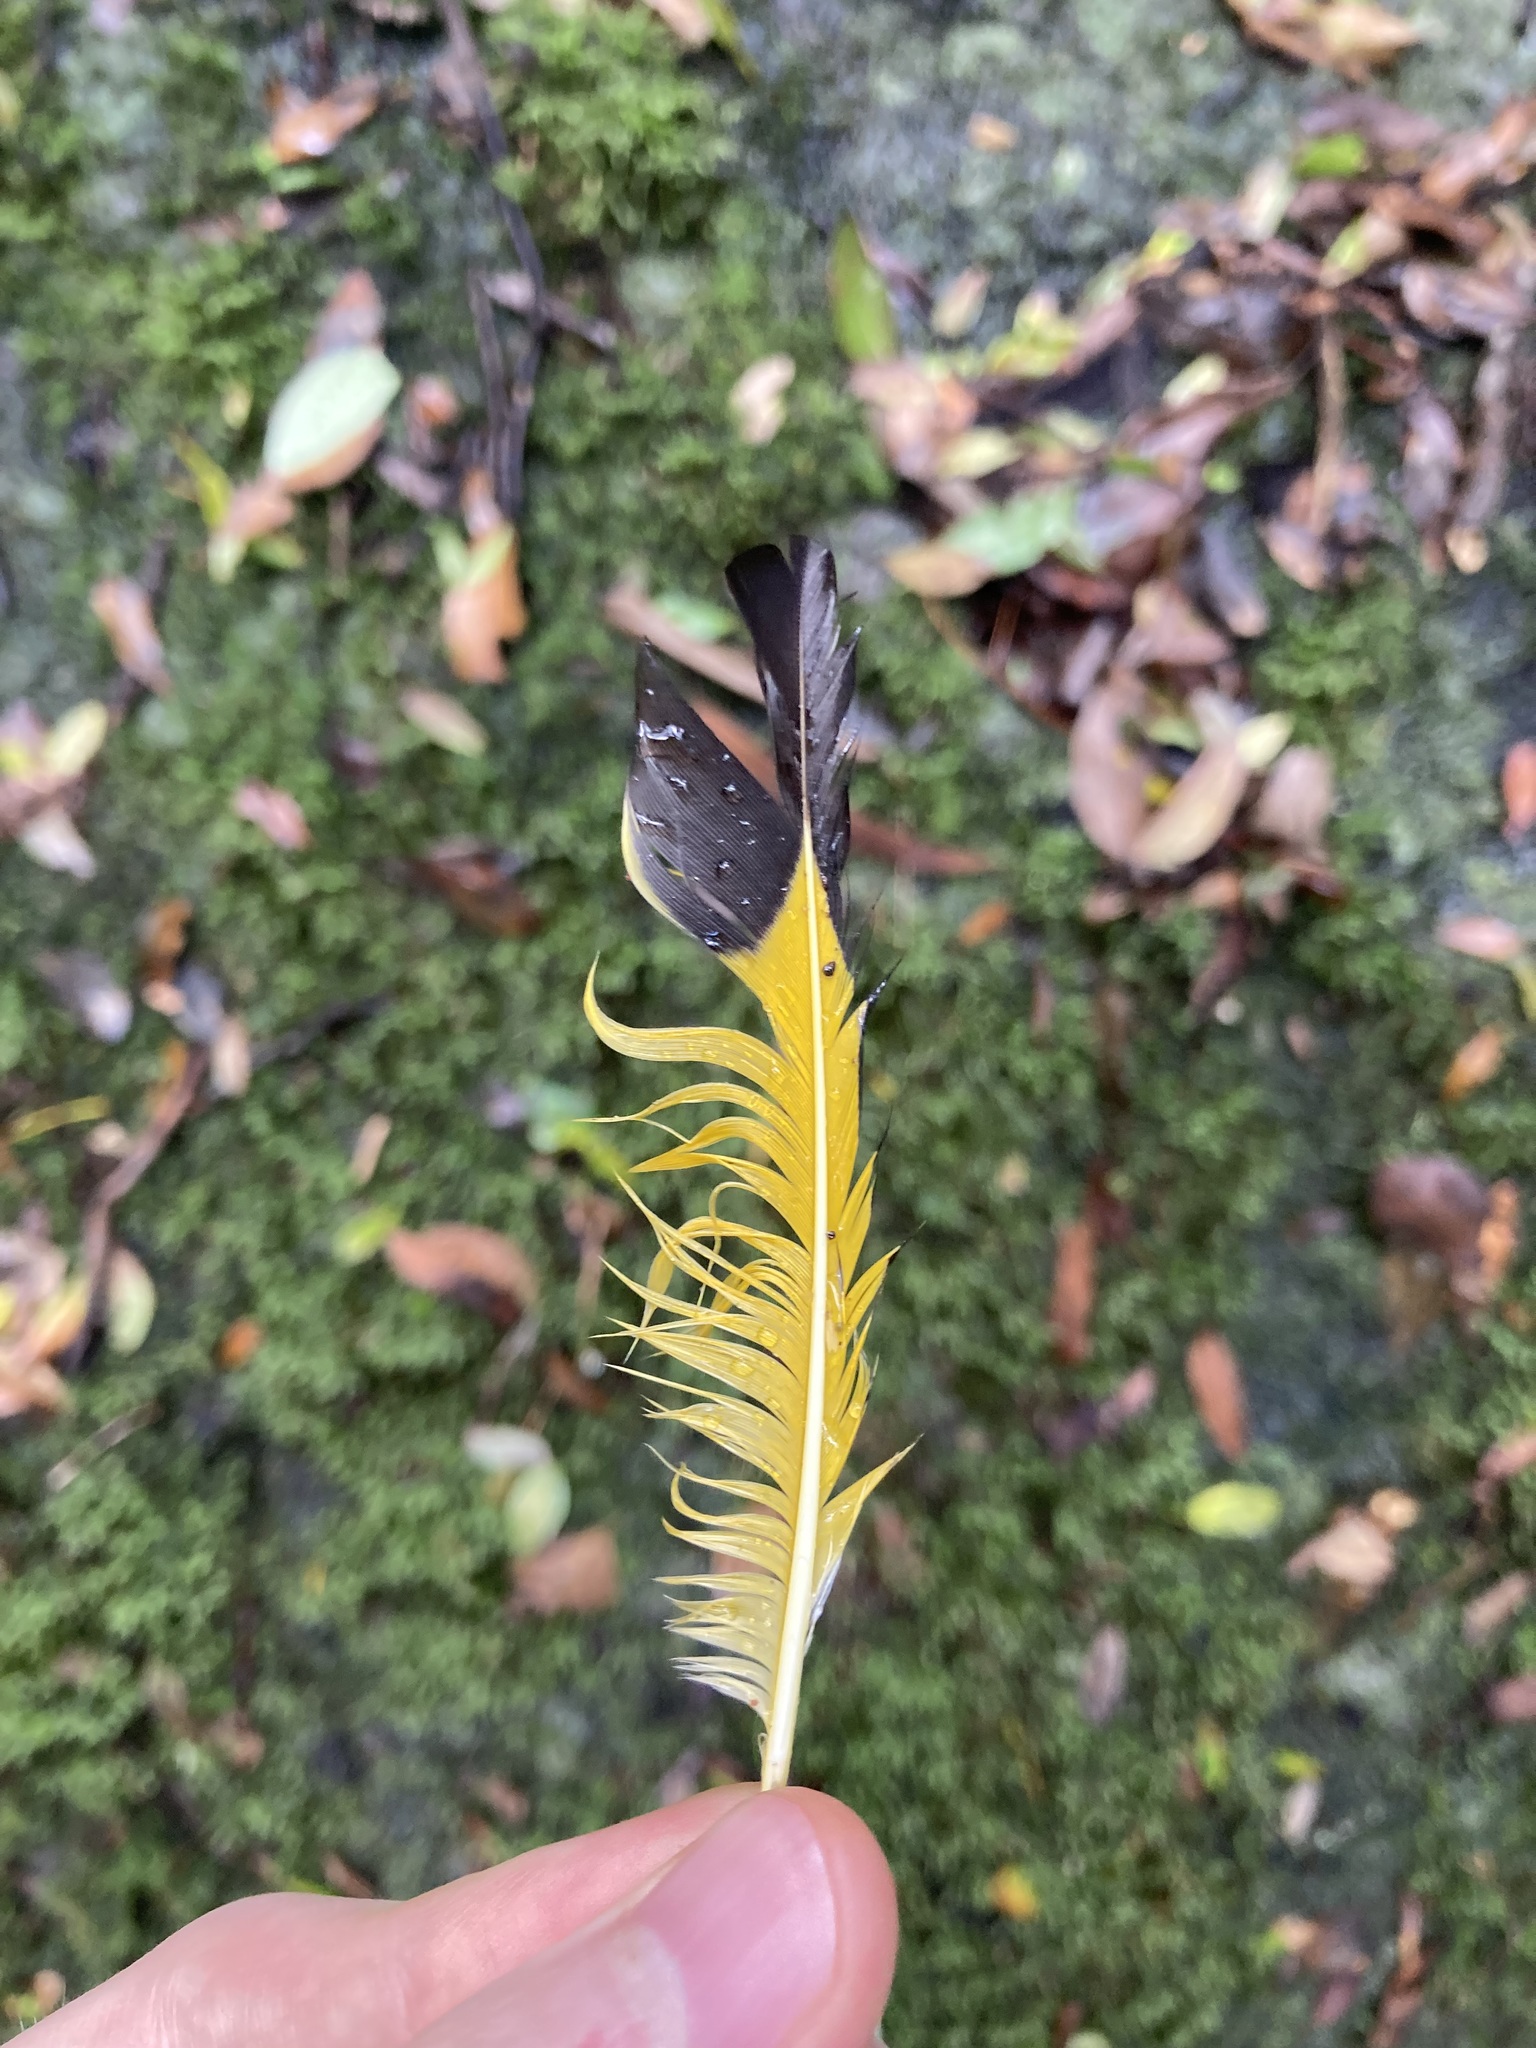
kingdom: Animalia
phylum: Chordata
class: Aves
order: Passeriformes
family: Ptilonorhynchidae
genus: Sericulus
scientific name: Sericulus chrysocephalus
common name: Regent bowerbird
